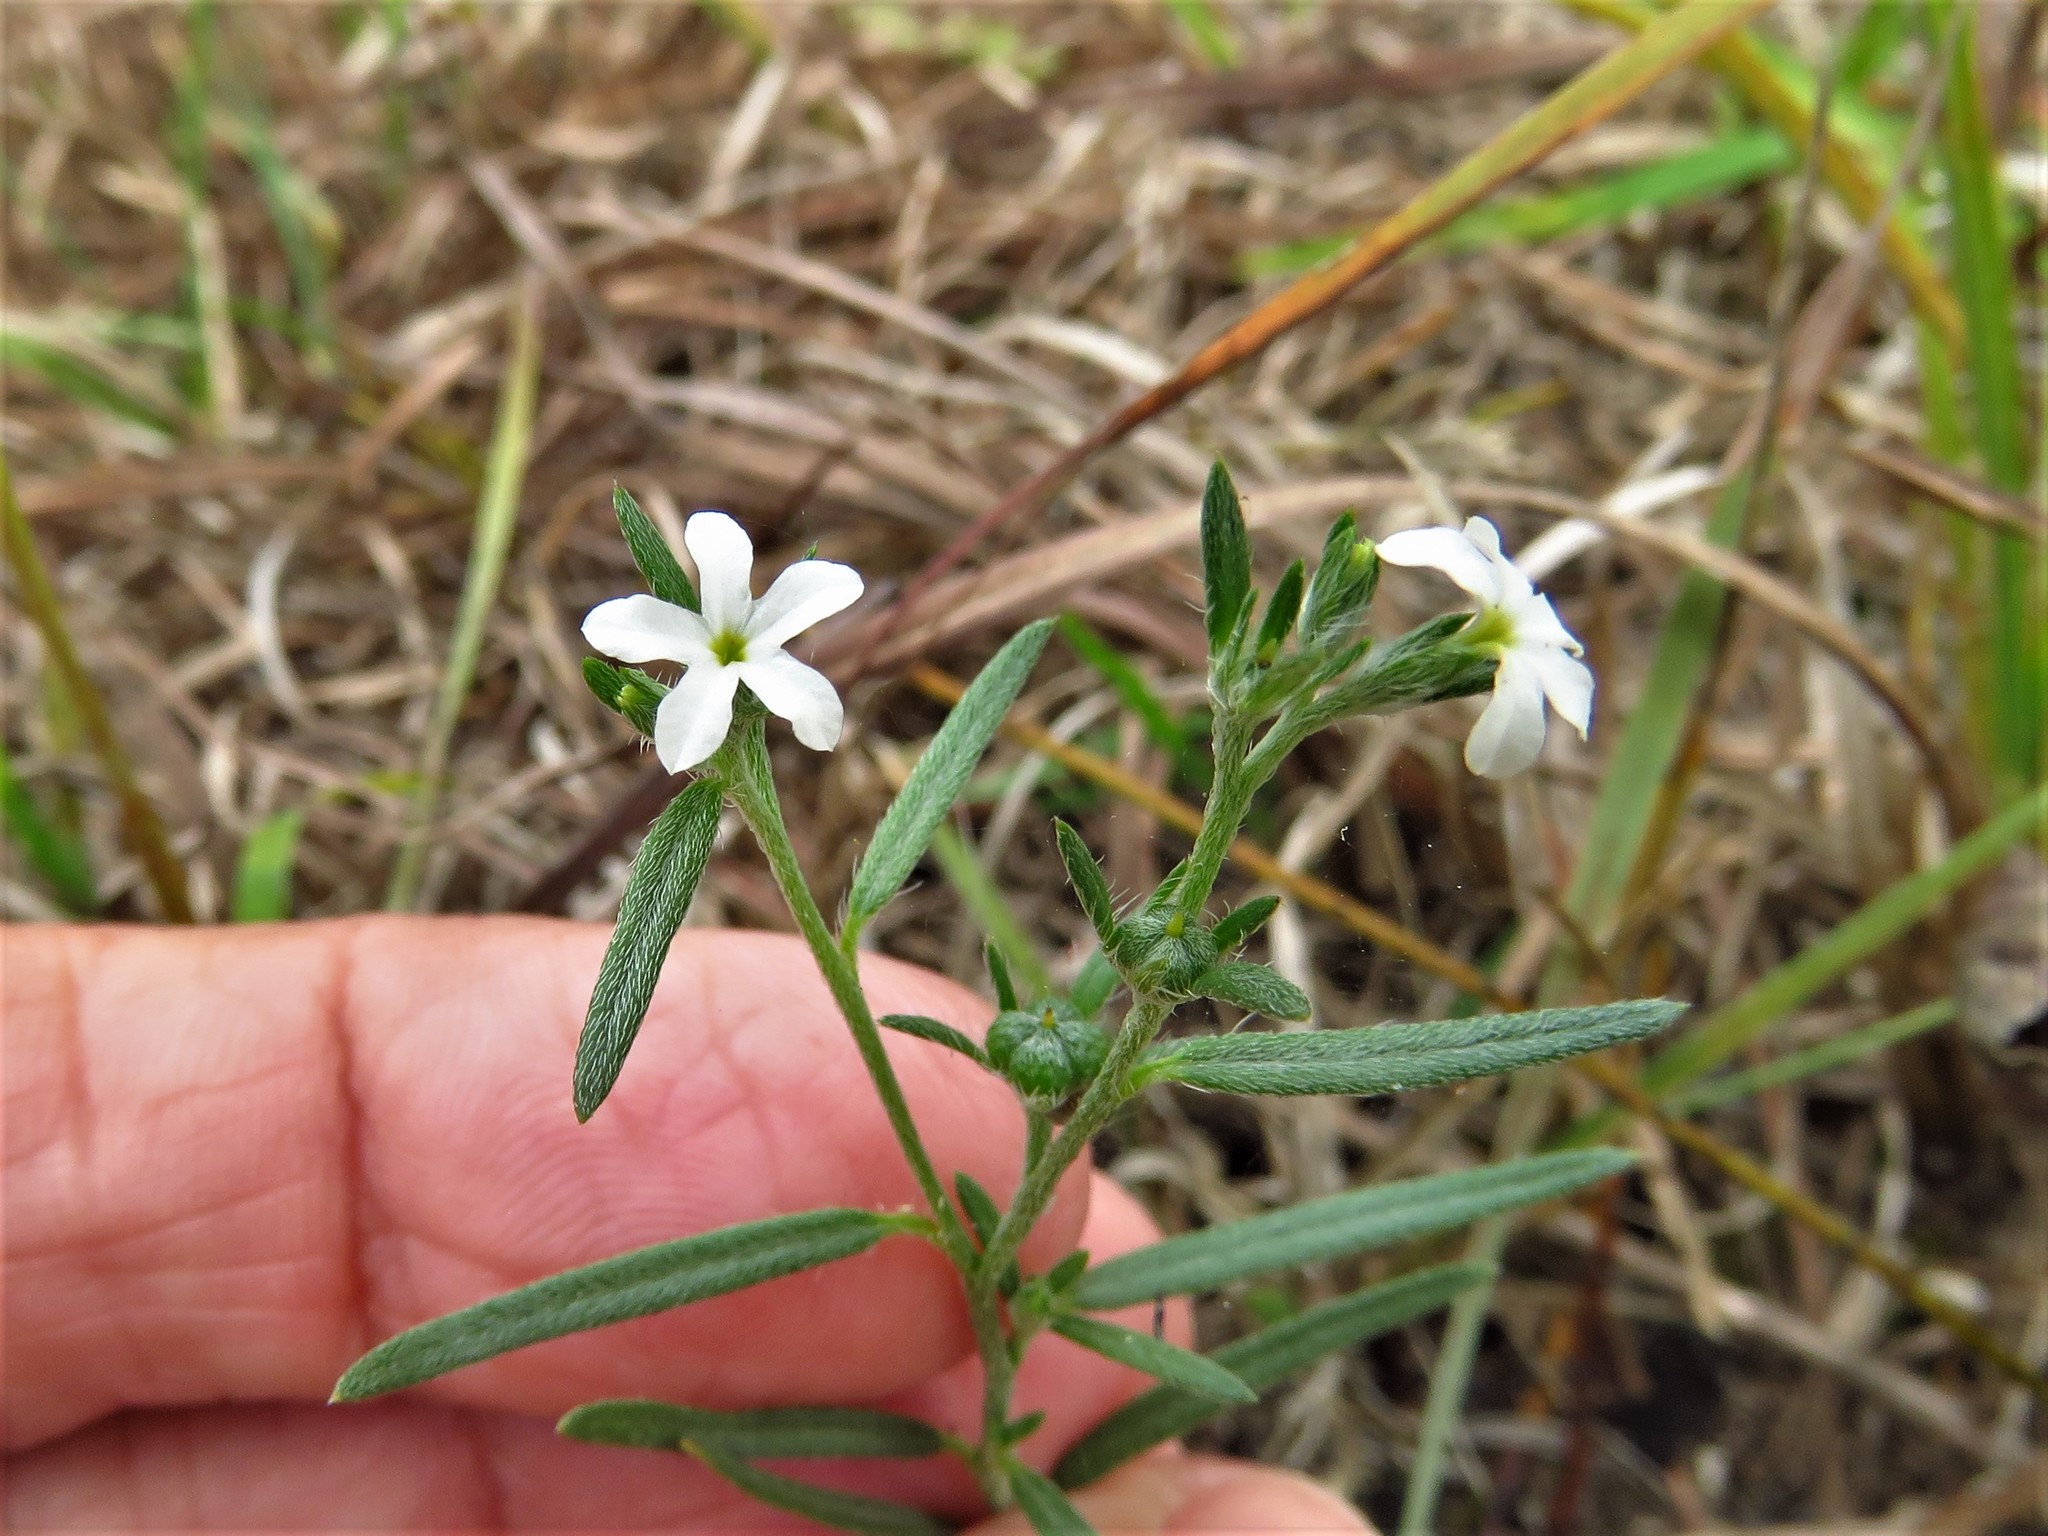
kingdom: Plantae
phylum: Tracheophyta
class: Magnoliopsida
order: Boraginales
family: Heliotropiaceae
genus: Euploca
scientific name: Euploca tenella
